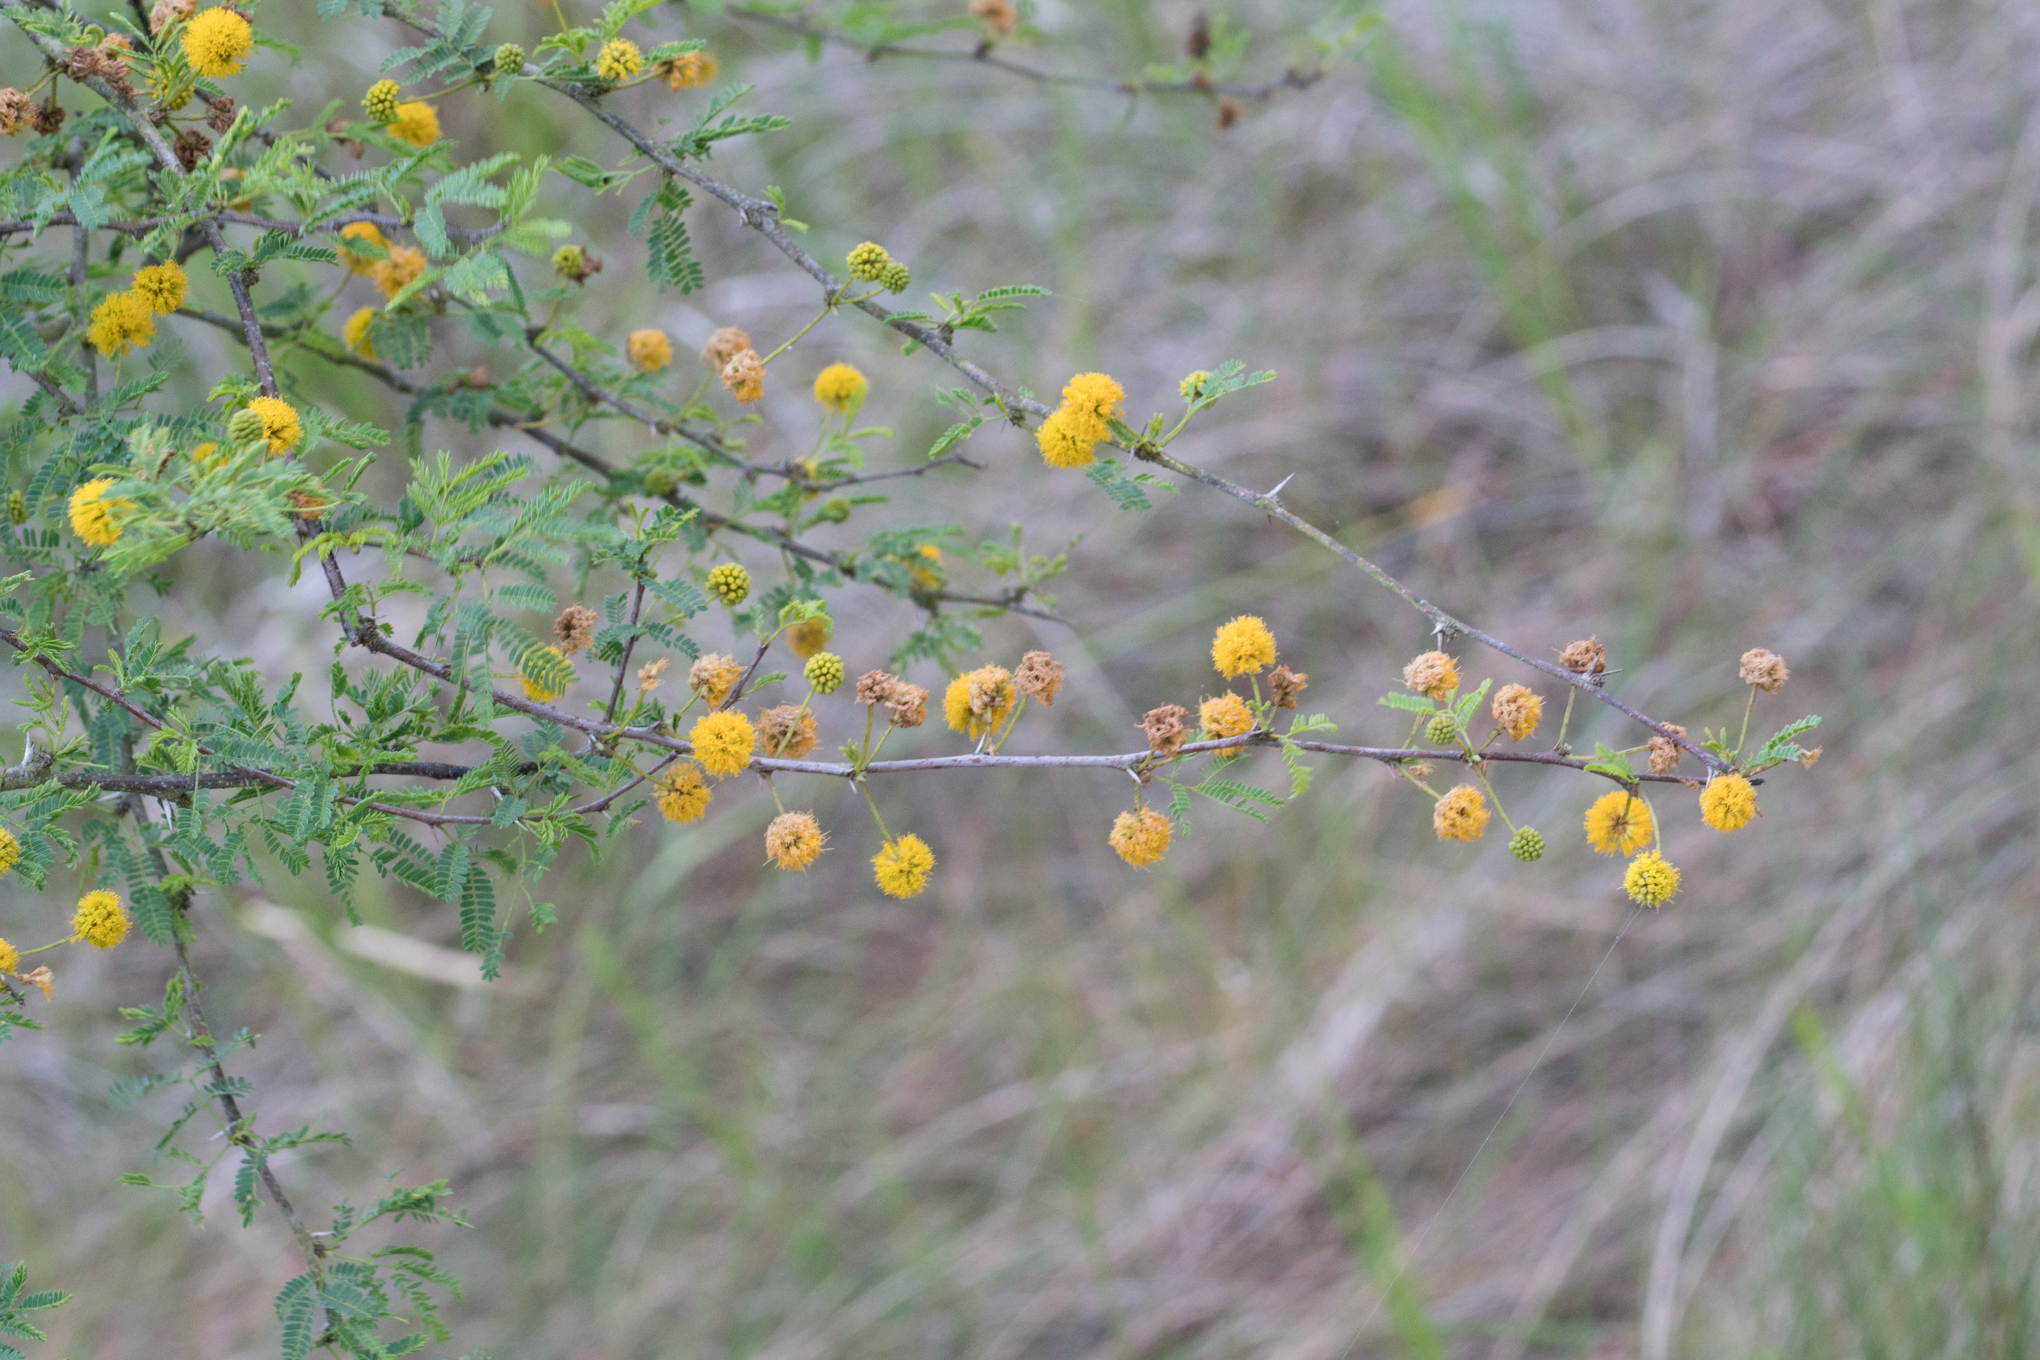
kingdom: Plantae
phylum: Tracheophyta
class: Magnoliopsida
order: Fabales
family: Fabaceae
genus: Vachellia
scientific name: Vachellia farnesiana
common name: Sweet acacia
